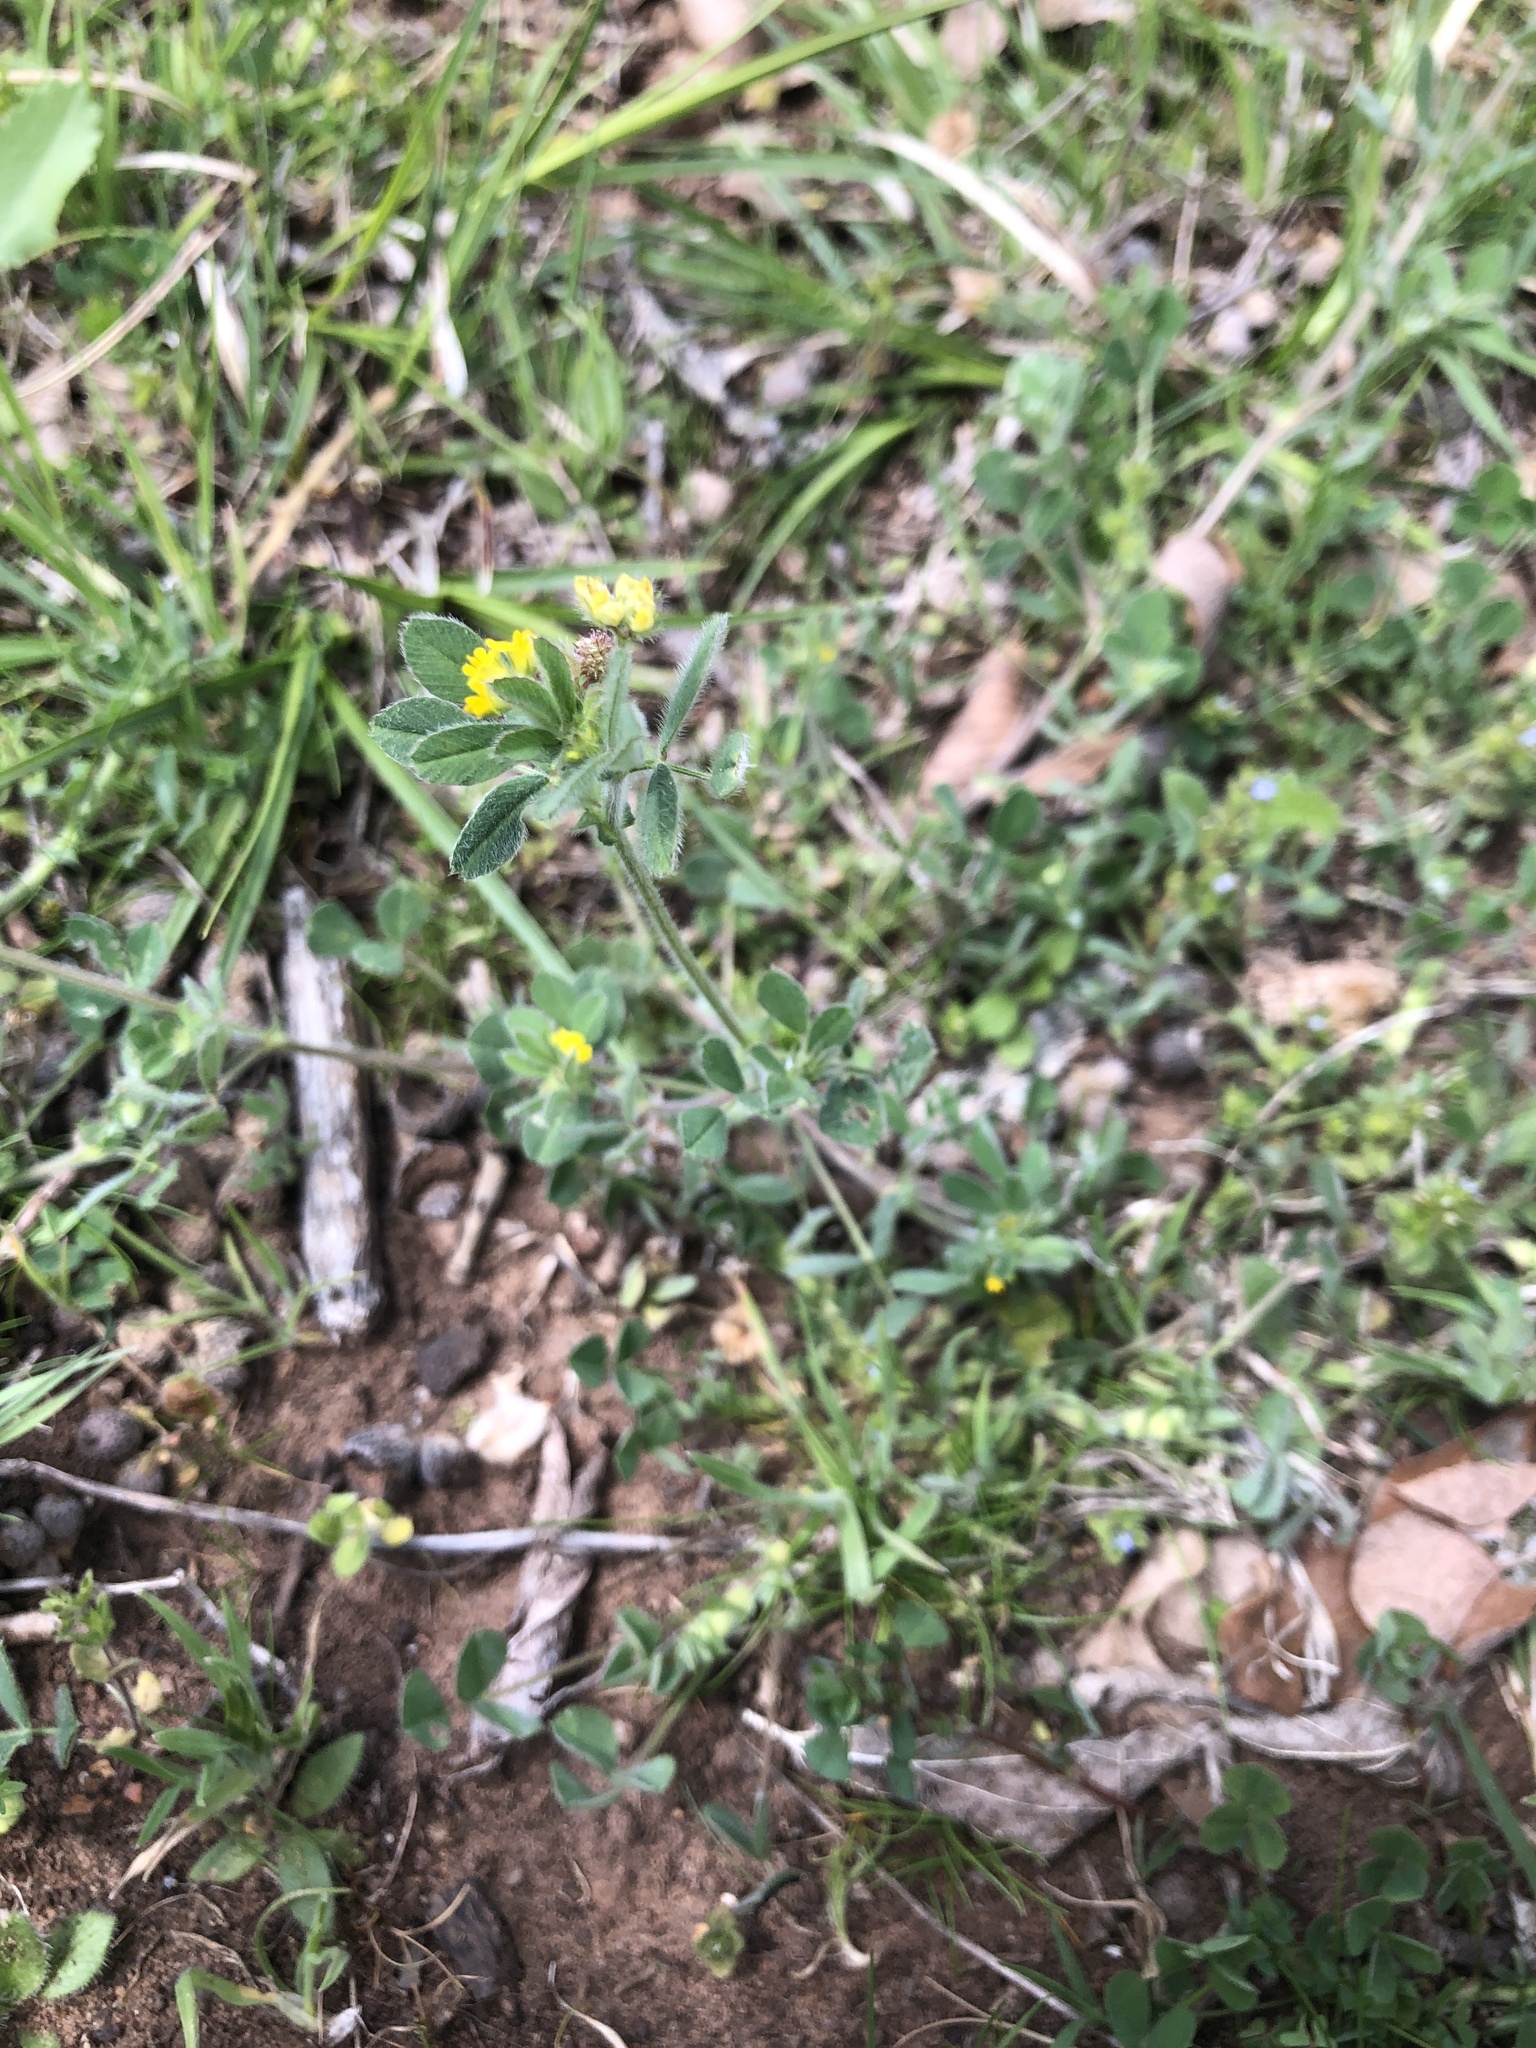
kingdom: Plantae
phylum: Tracheophyta
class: Magnoliopsida
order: Fabales
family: Fabaceae
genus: Medicago
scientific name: Medicago minima
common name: Little bur-clover
